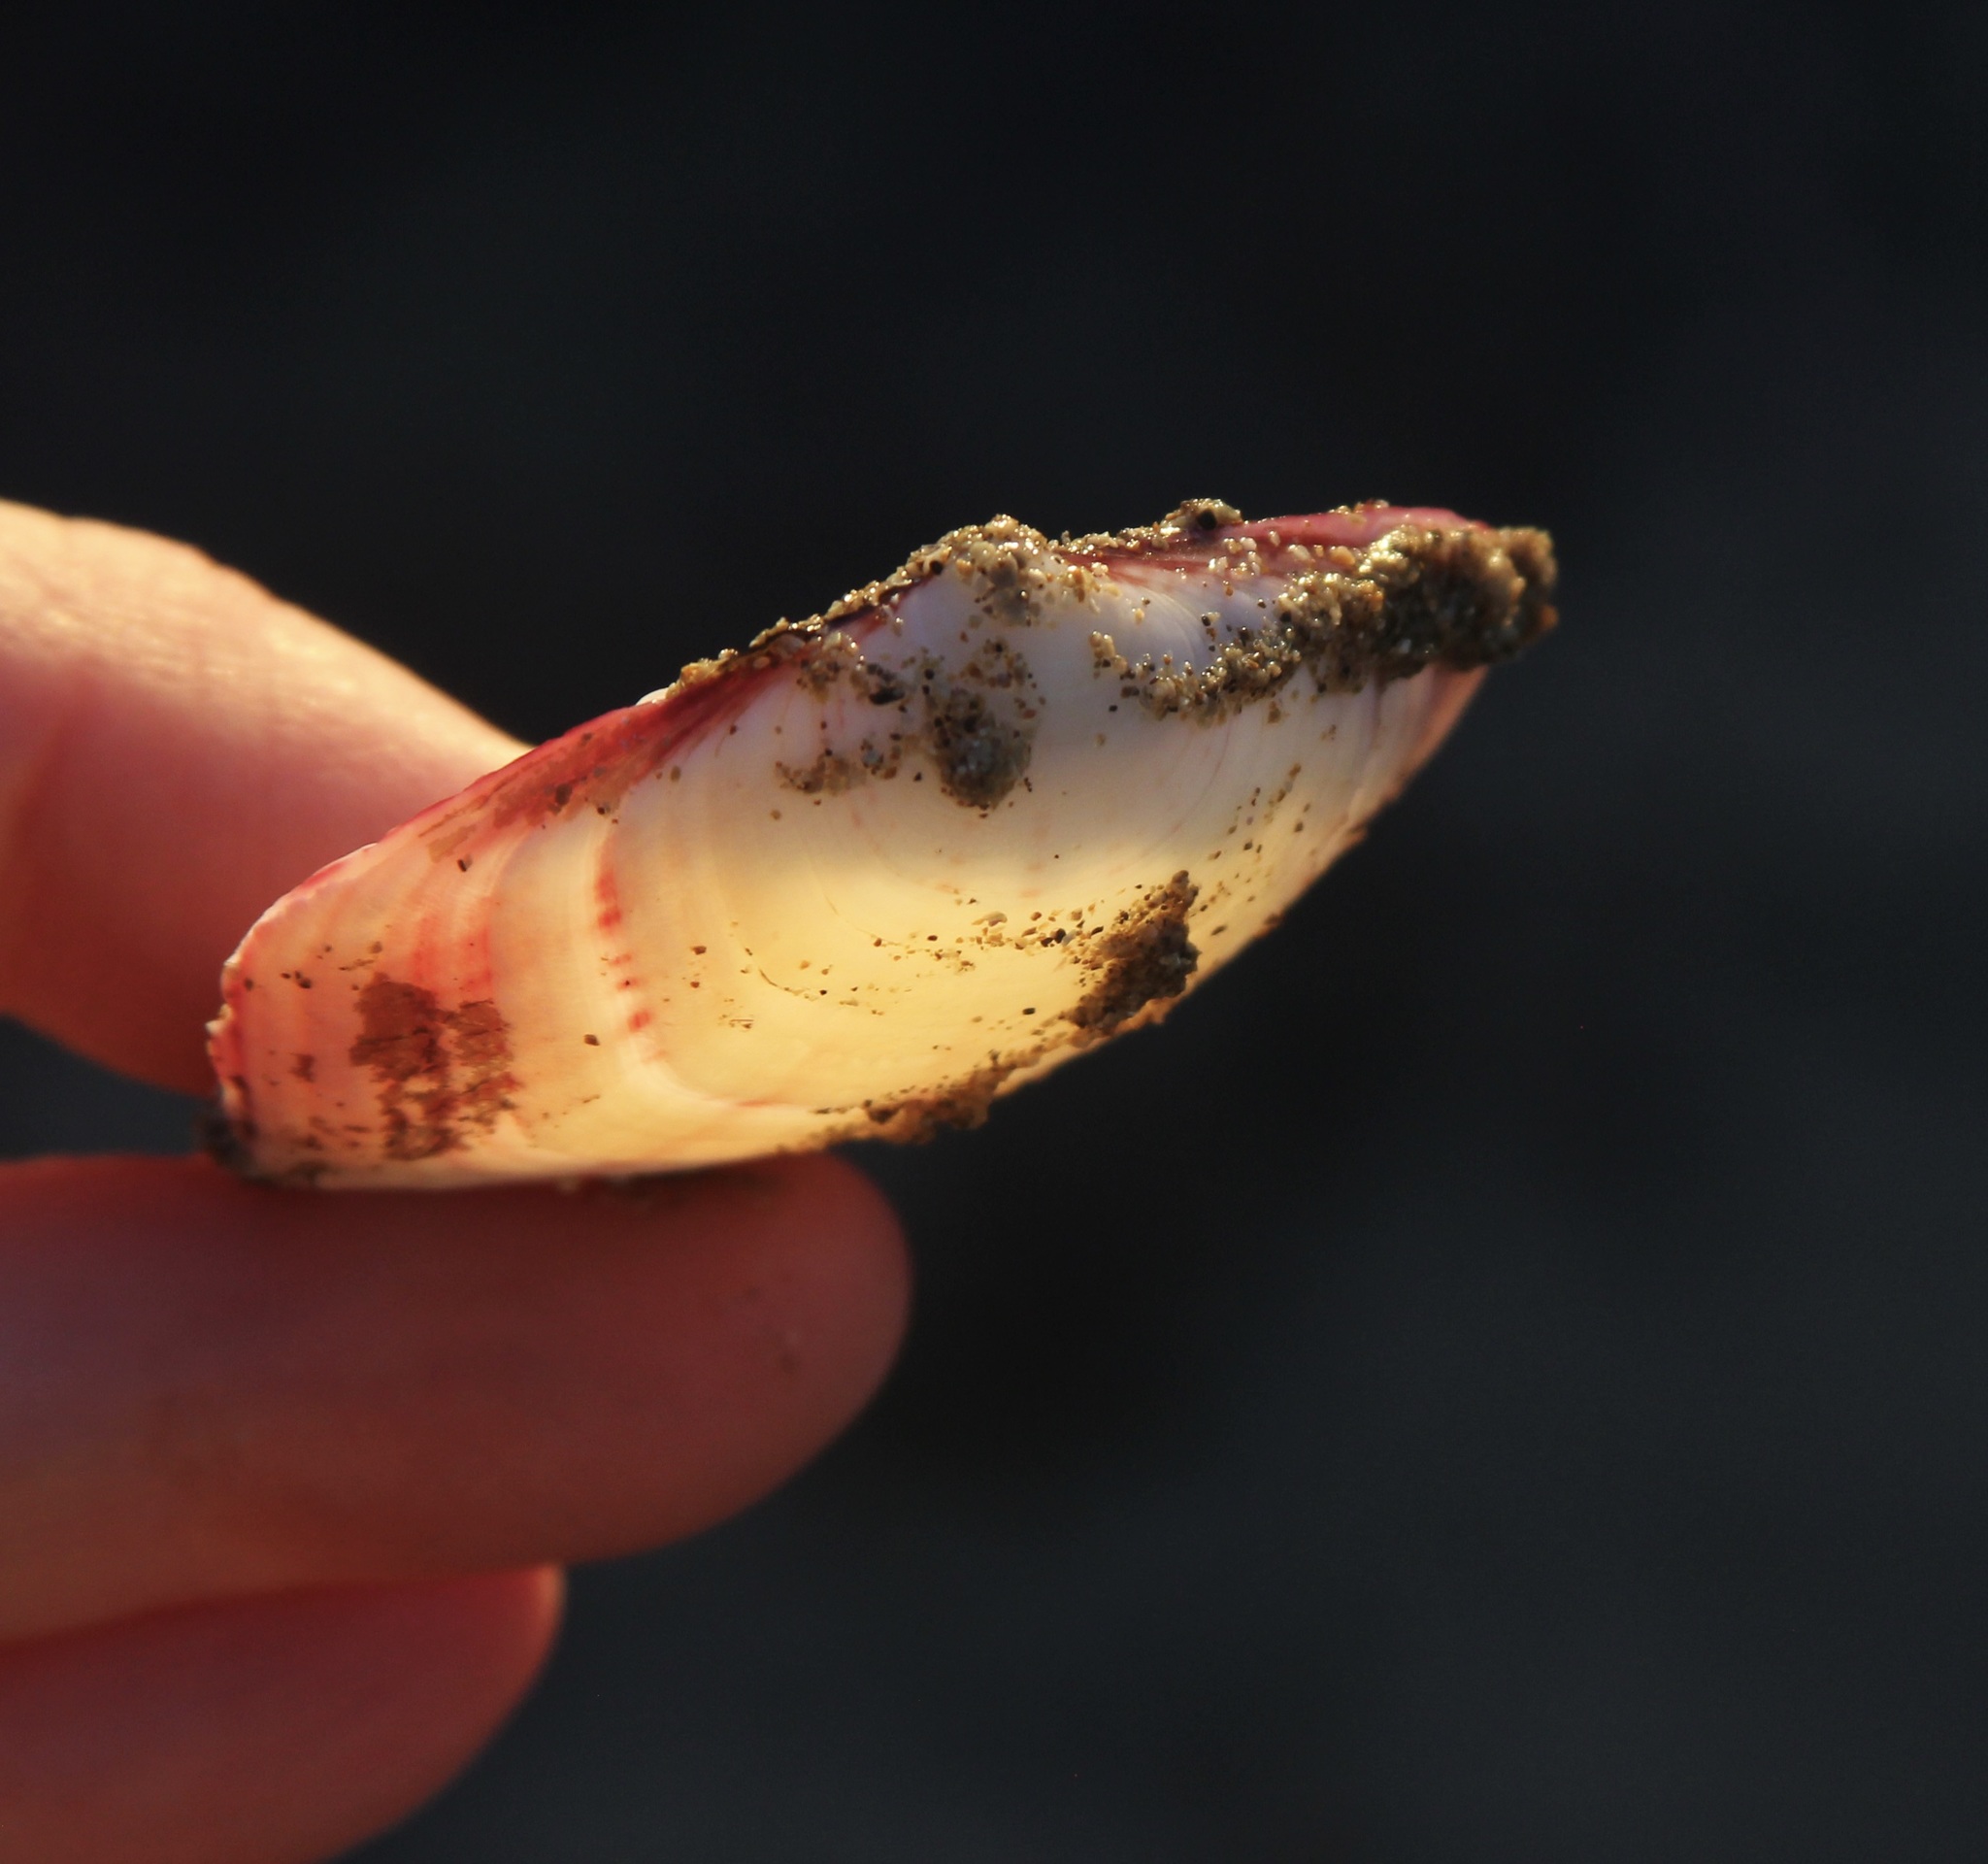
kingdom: Animalia
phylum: Mollusca
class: Bivalvia
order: Cardiida
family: Semelidae
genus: Semele
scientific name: Semele decisa
